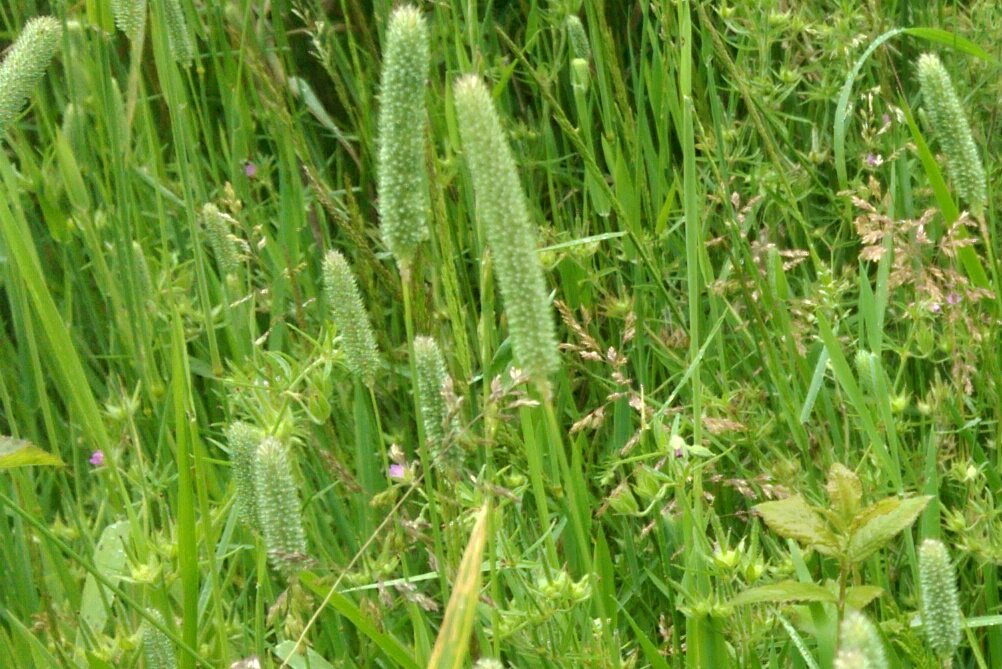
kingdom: Plantae
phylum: Tracheophyta
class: Liliopsida
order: Poales
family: Poaceae
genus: Phleum
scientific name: Phleum pratense
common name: Timothy grass
